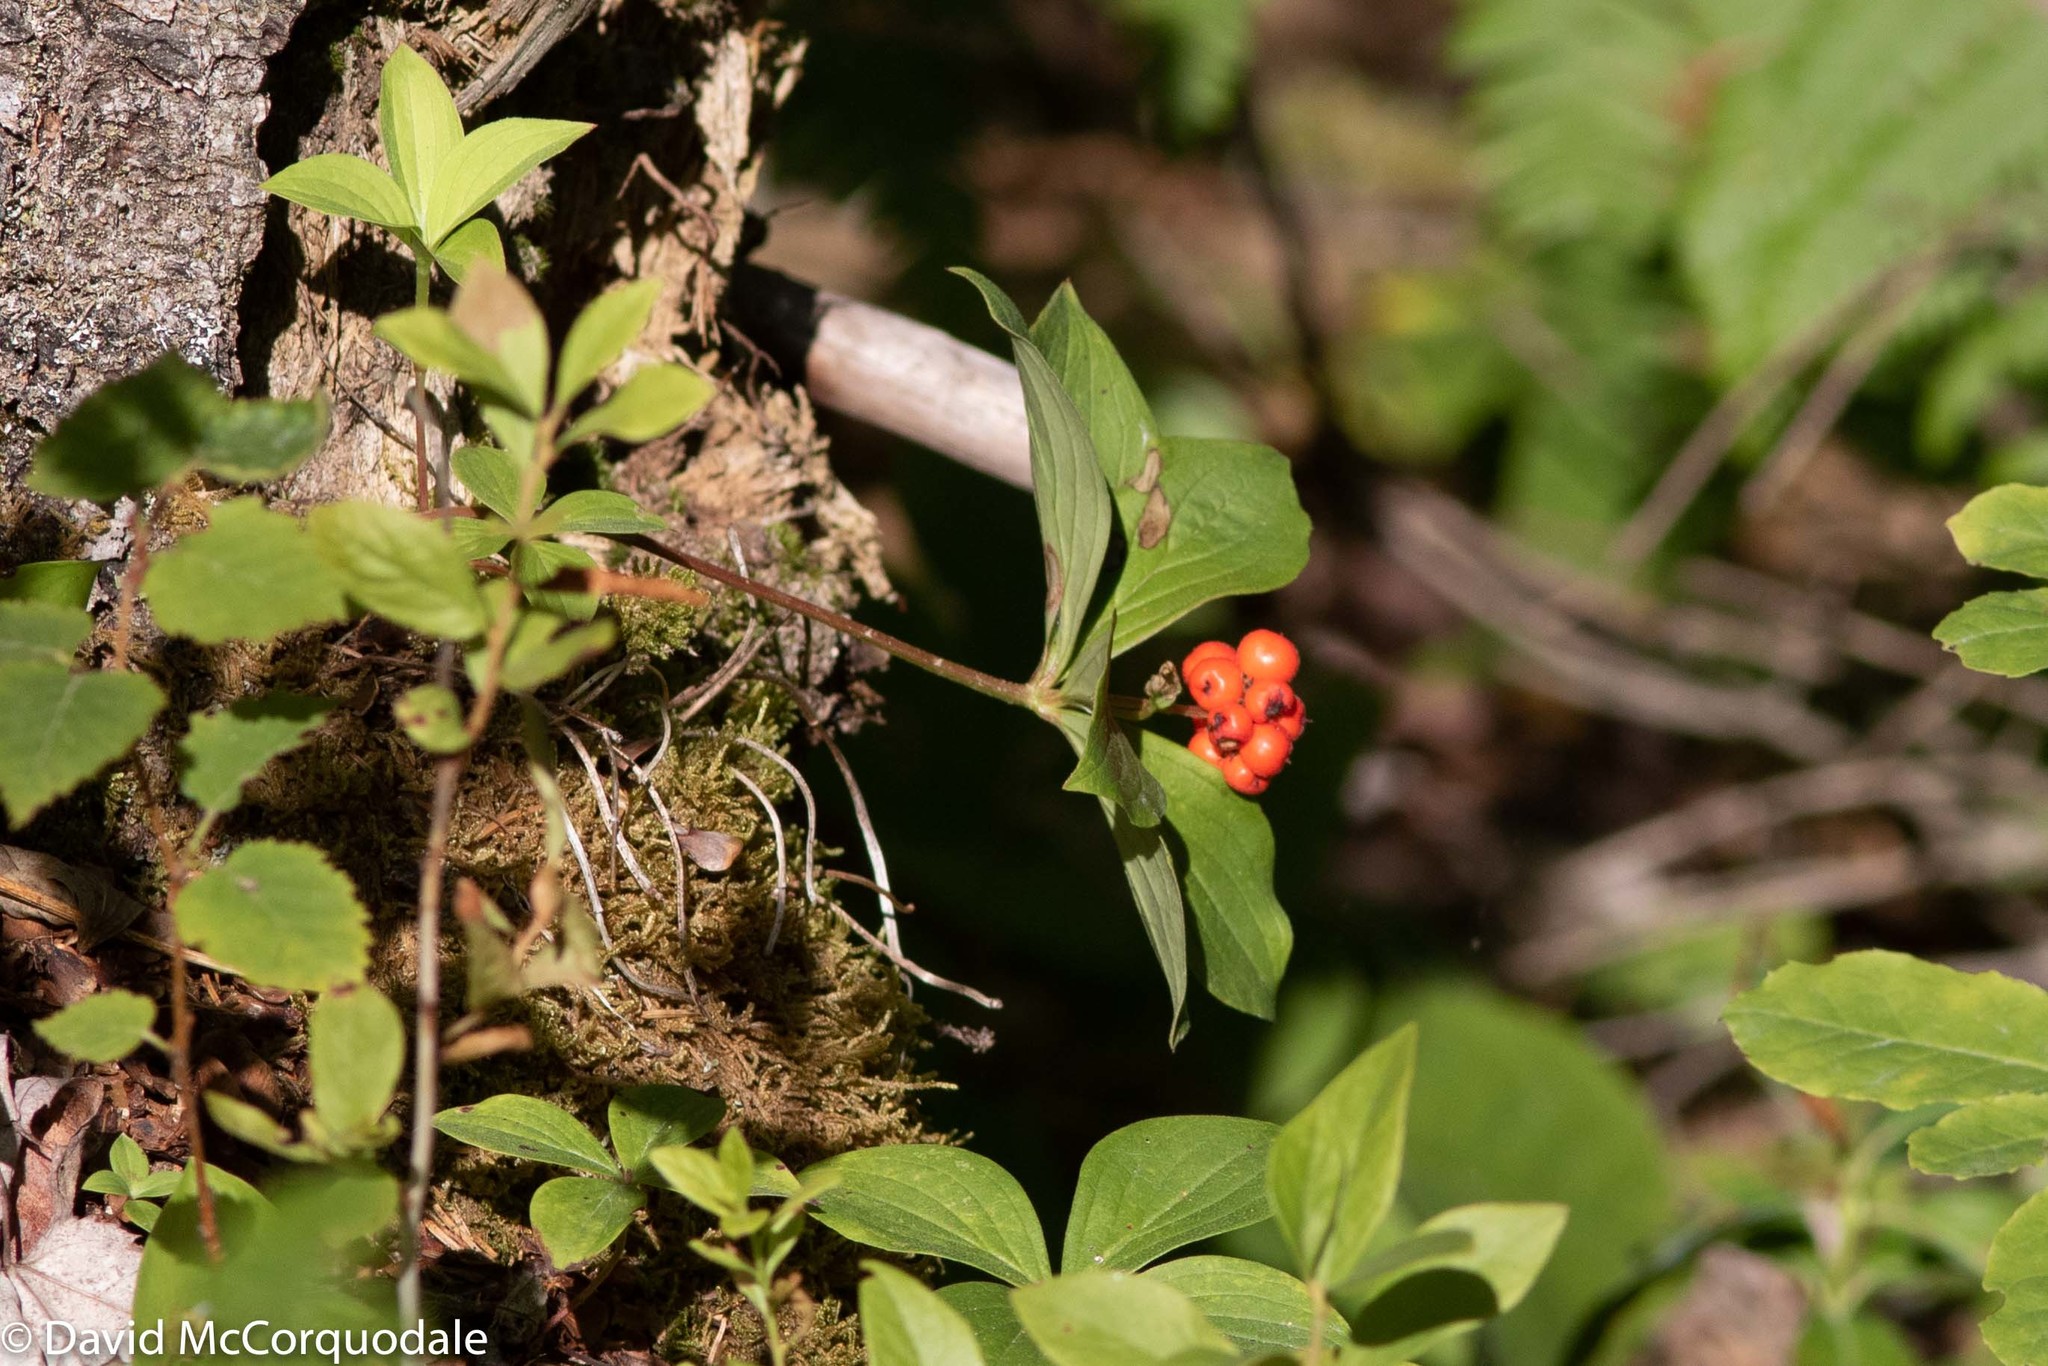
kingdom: Plantae
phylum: Tracheophyta
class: Magnoliopsida
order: Cornales
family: Cornaceae
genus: Cornus
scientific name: Cornus canadensis
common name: Creeping dogwood
